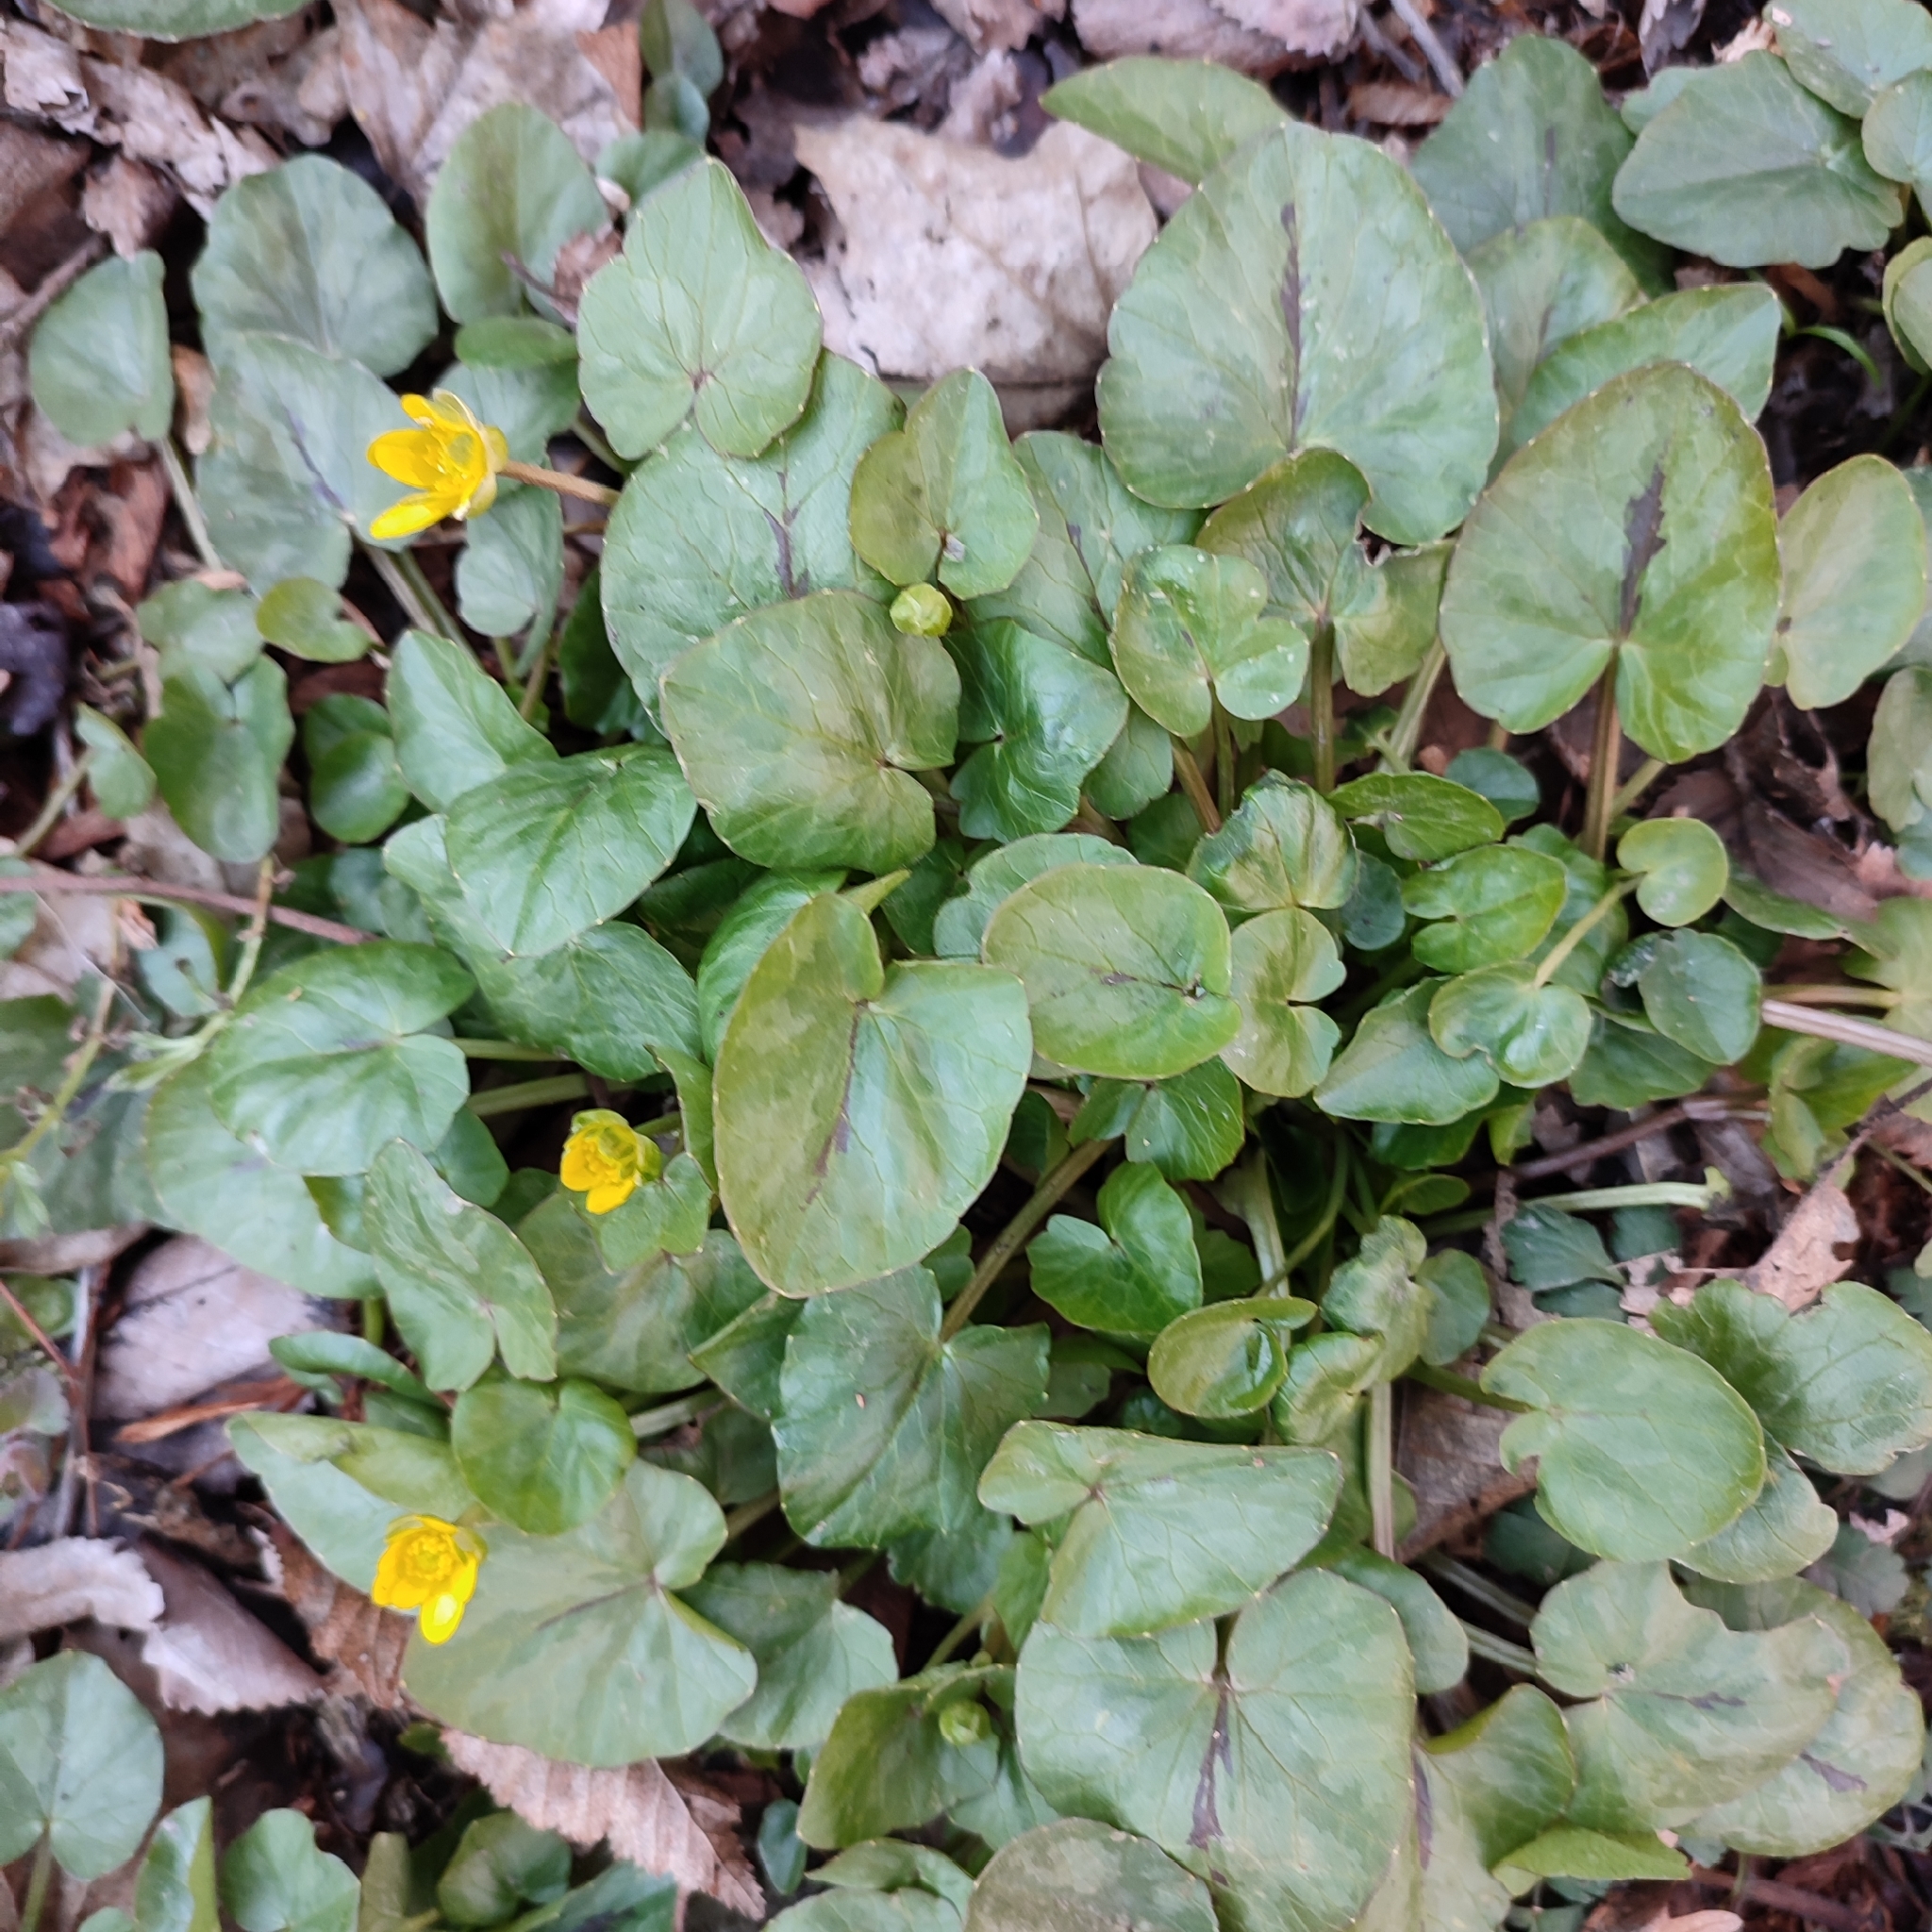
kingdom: Plantae
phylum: Tracheophyta
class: Magnoliopsida
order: Ranunculales
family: Ranunculaceae
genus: Ficaria
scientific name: Ficaria verna
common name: Lesser celandine
